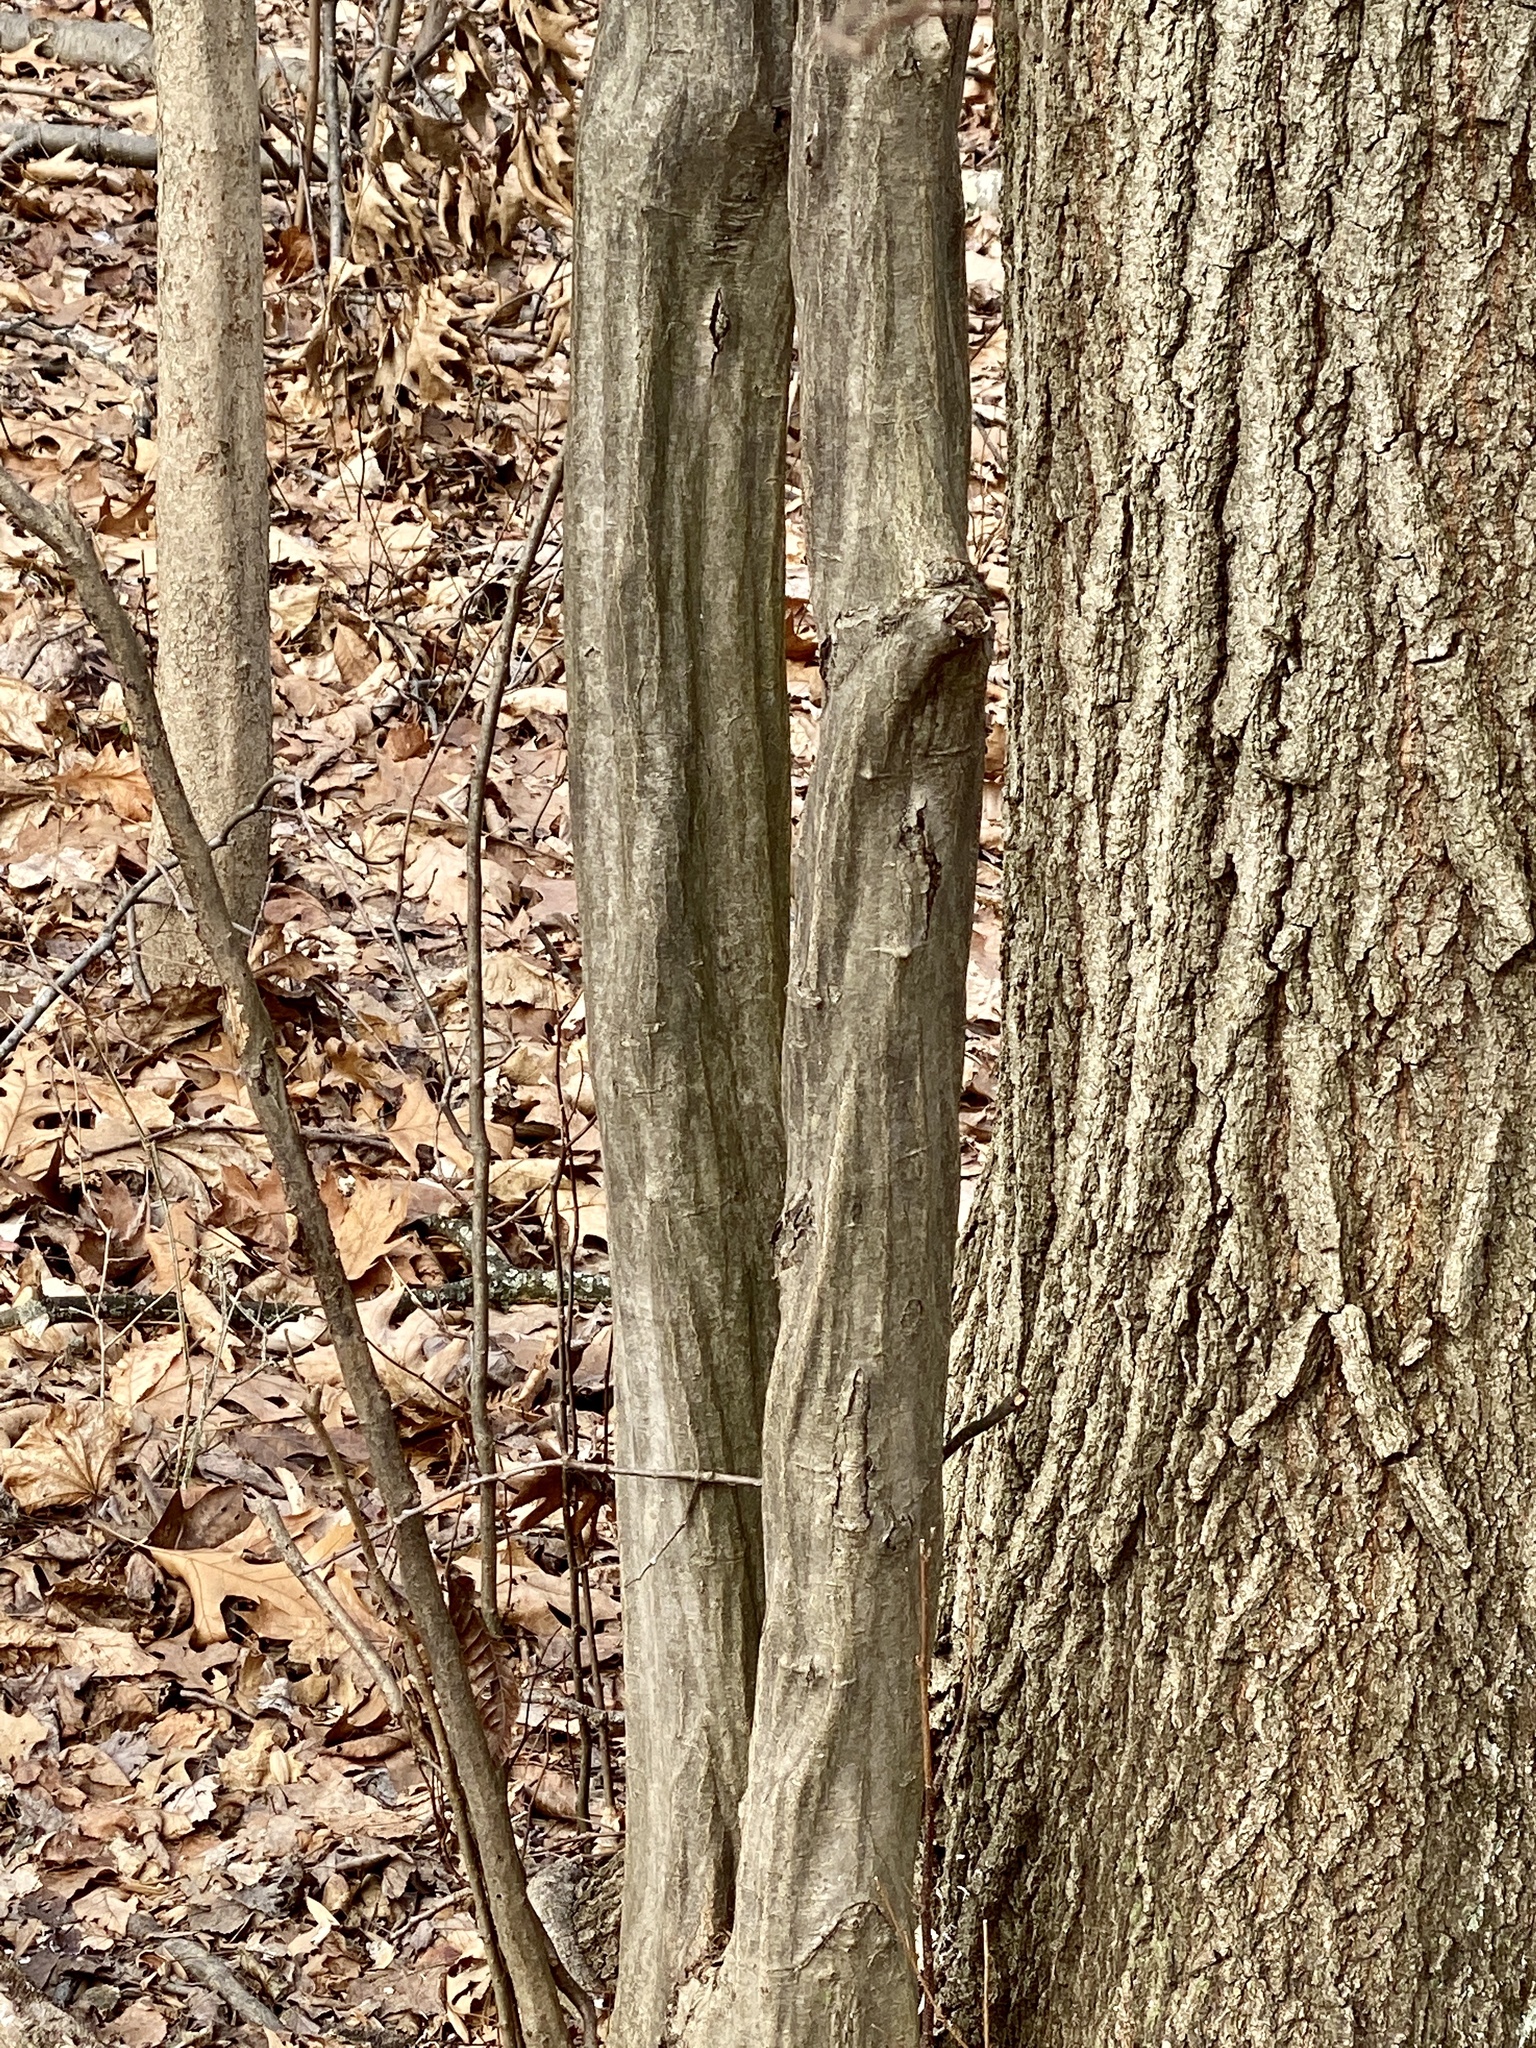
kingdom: Plantae
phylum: Tracheophyta
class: Magnoliopsida
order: Fagales
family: Betulaceae
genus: Carpinus
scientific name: Carpinus caroliniana
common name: American hornbeam
